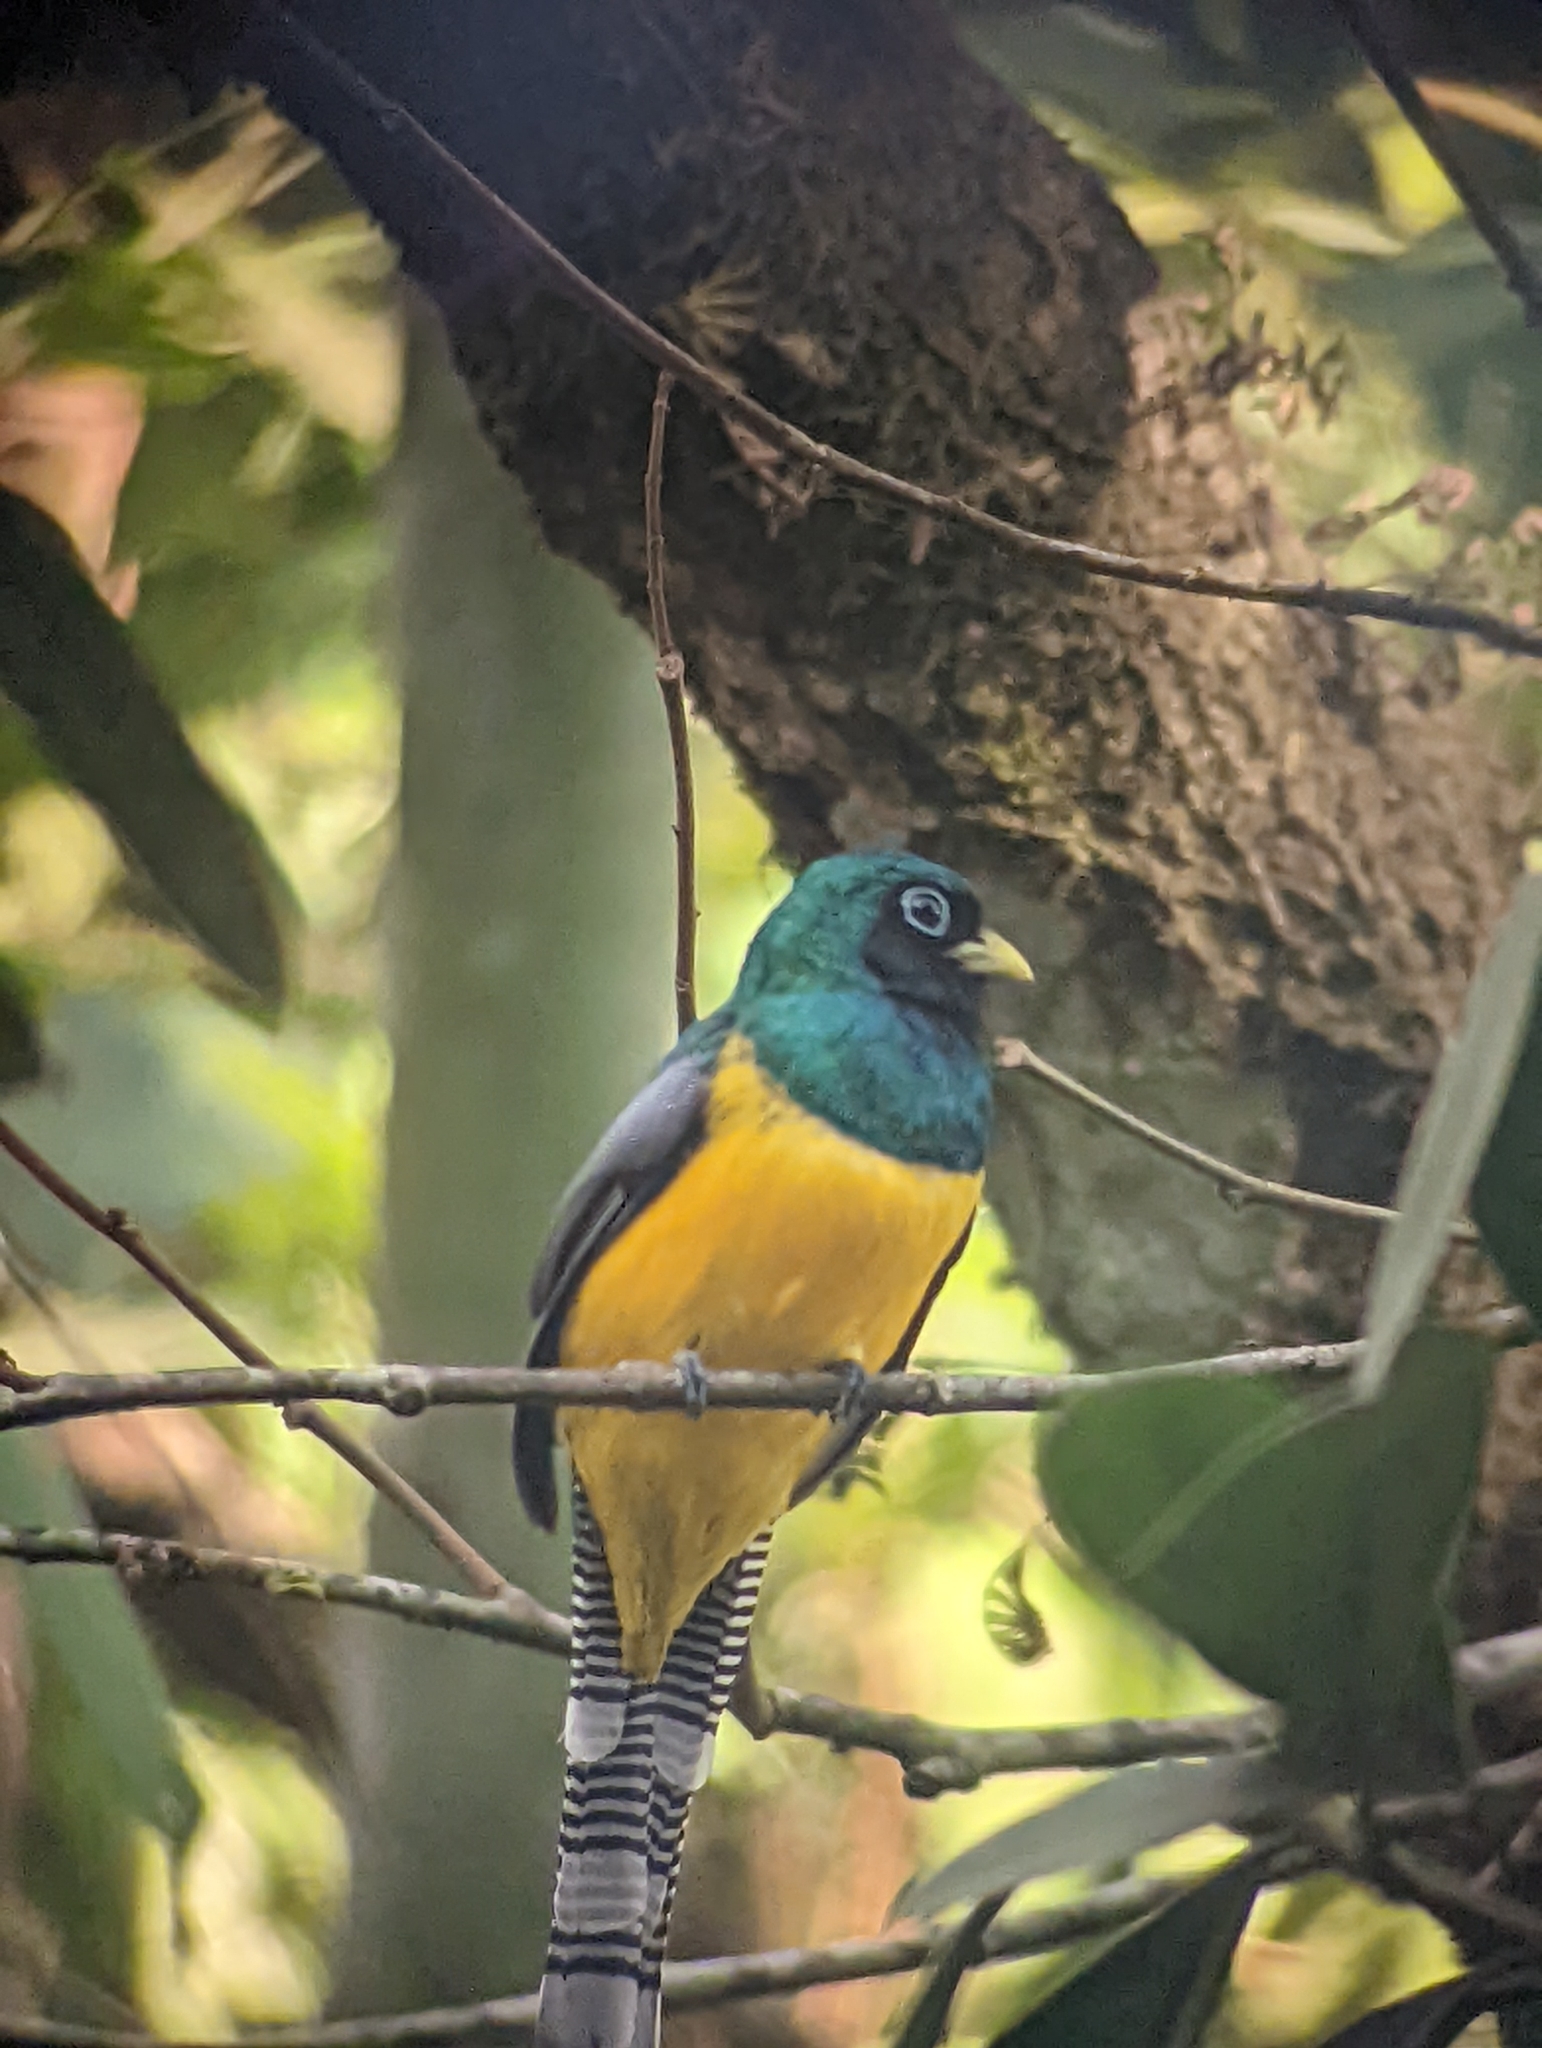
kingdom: Animalia
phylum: Chordata
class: Aves
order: Trogoniformes
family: Trogonidae
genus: Trogon
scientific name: Trogon rufus
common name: Black-throated trogon
